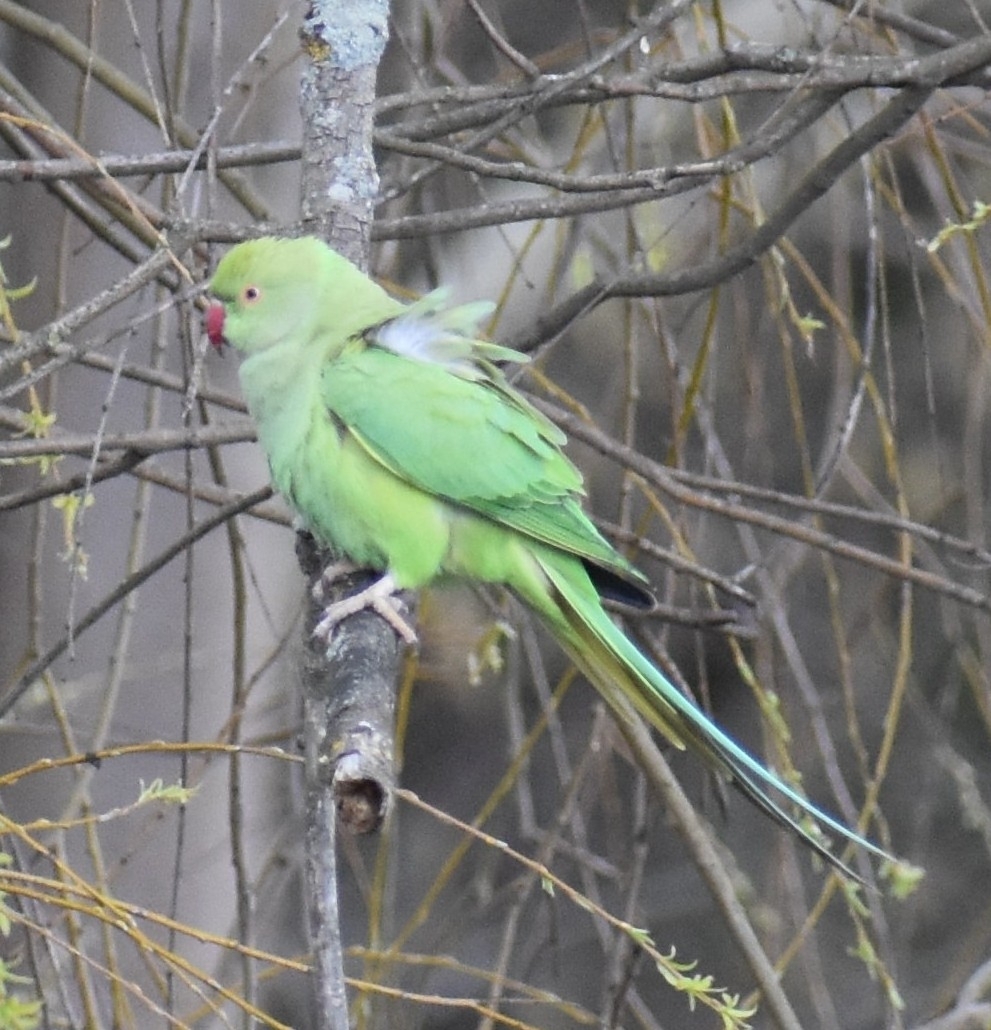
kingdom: Animalia
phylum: Chordata
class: Aves
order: Psittaciformes
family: Psittacidae
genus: Psittacula
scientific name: Psittacula krameri
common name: Rose-ringed parakeet
